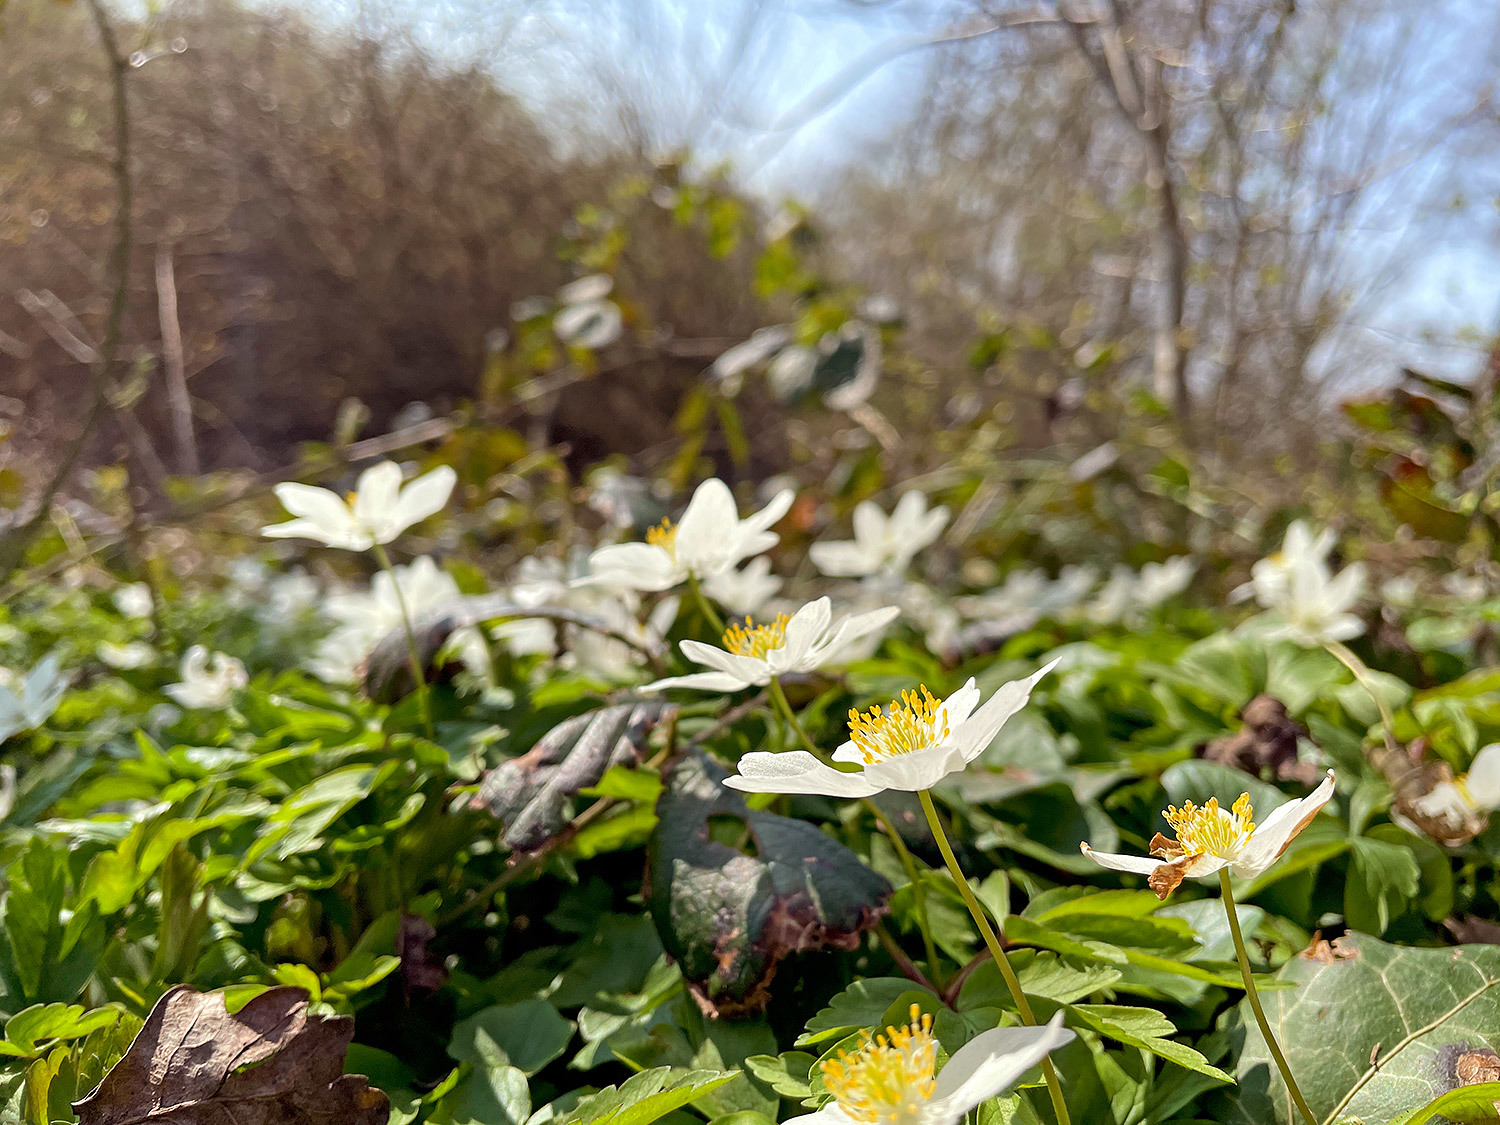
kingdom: Plantae
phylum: Tracheophyta
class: Magnoliopsida
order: Ranunculales
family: Ranunculaceae
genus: Anemone
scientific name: Anemone nemorosa
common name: Wood anemone
